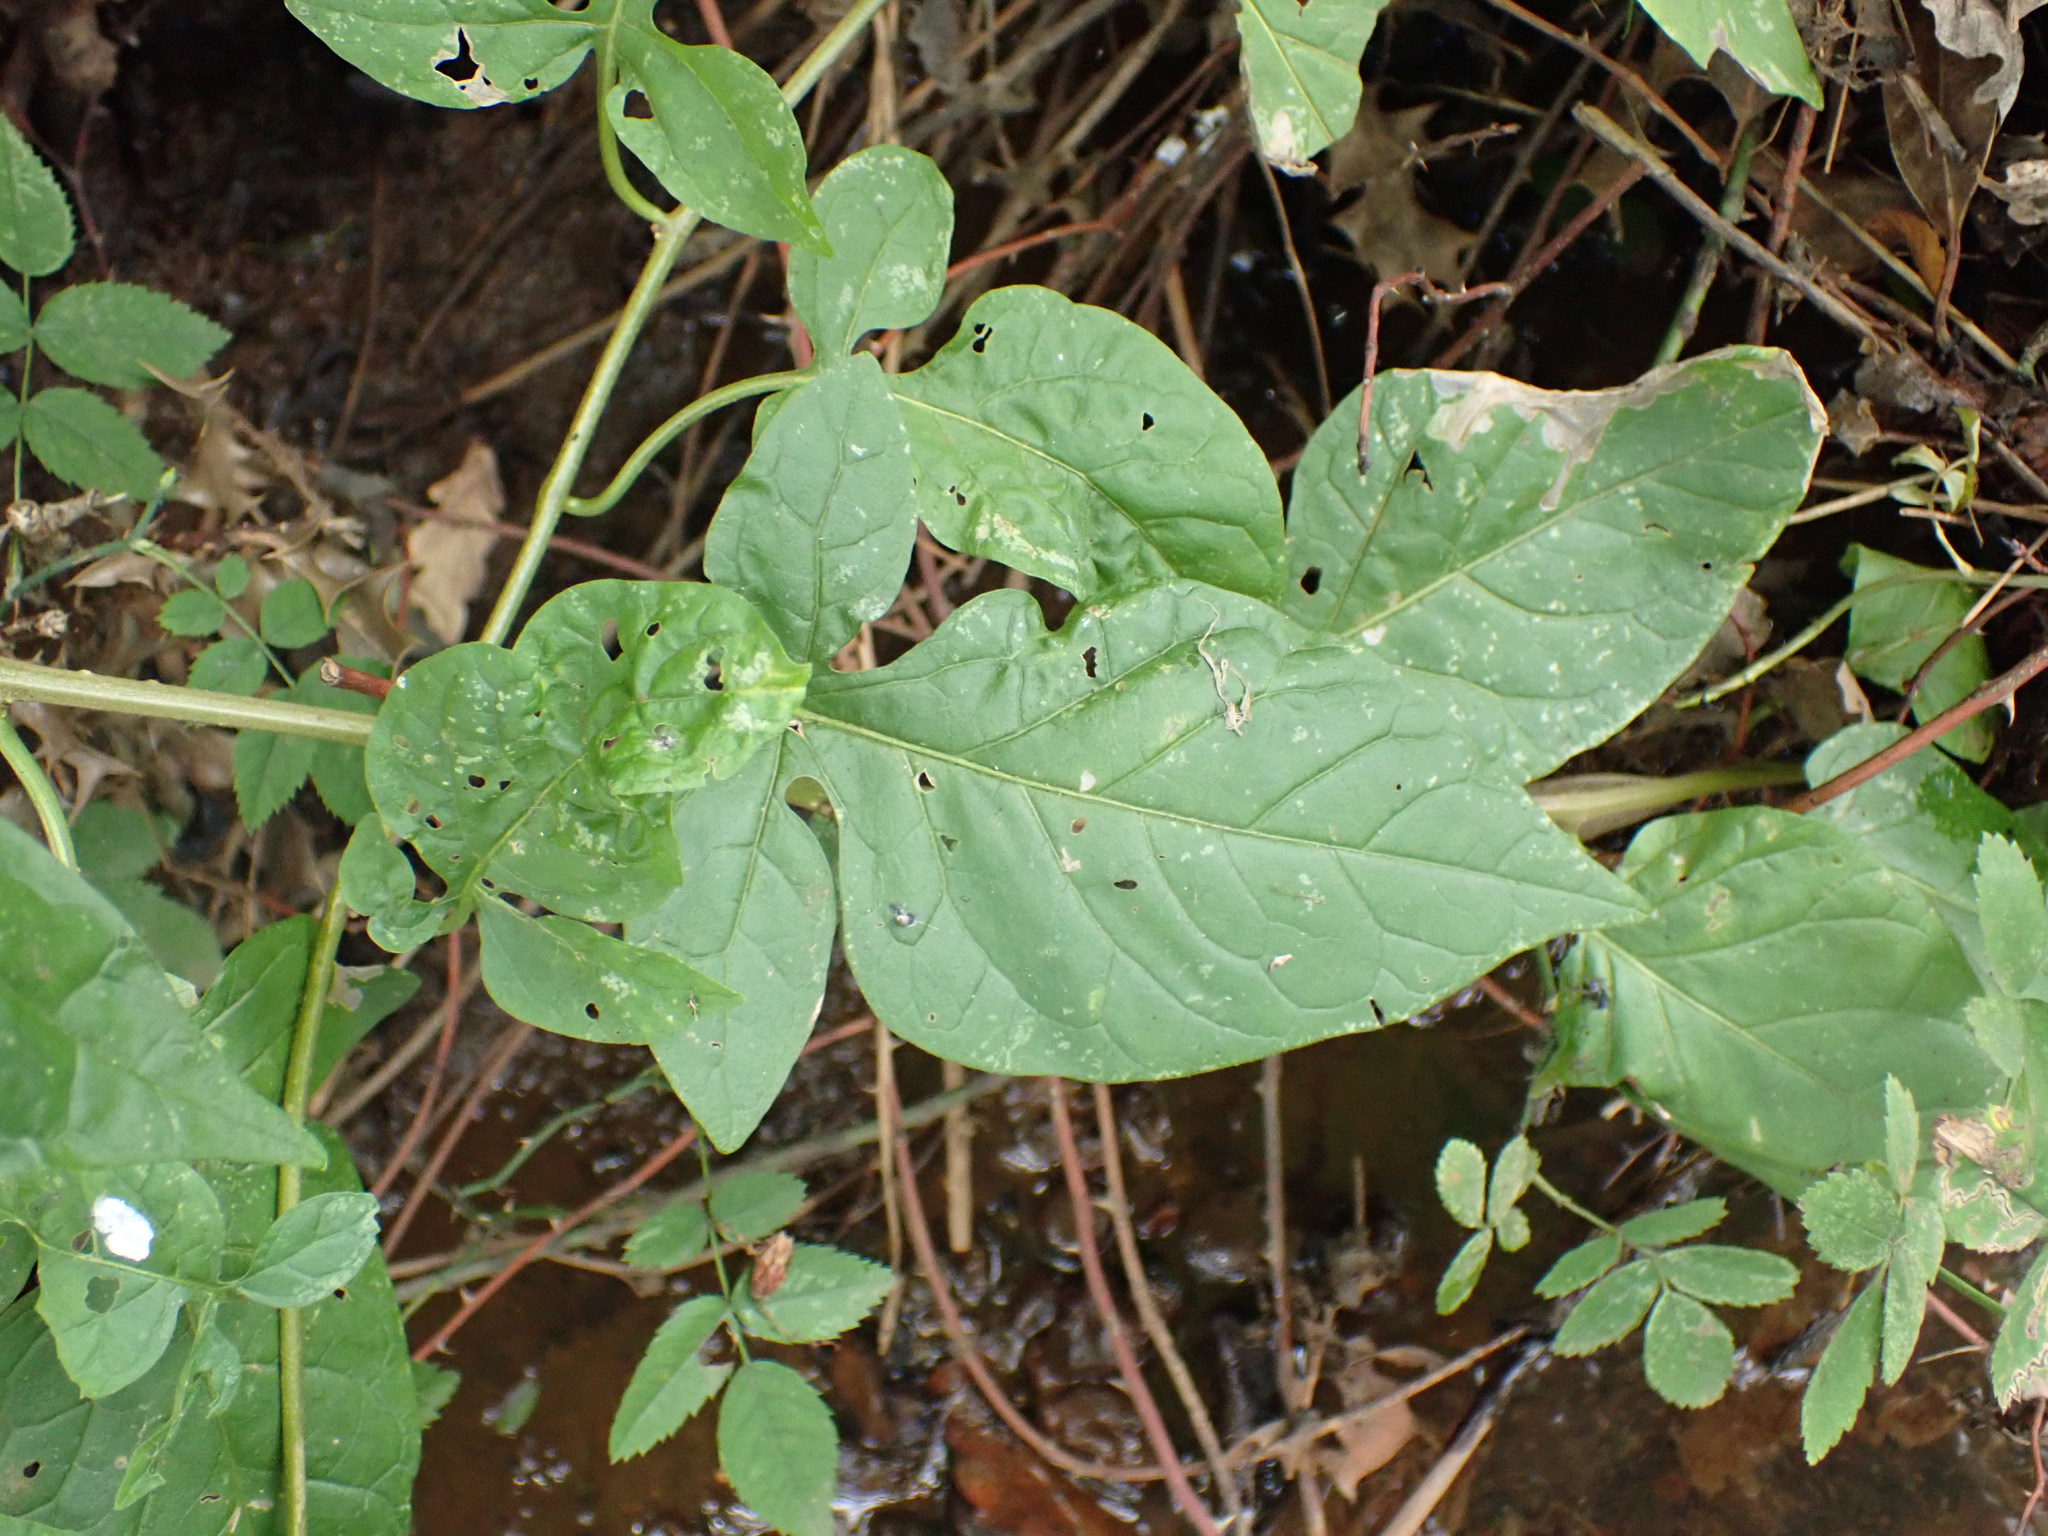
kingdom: Plantae
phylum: Tracheophyta
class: Magnoliopsida
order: Solanales
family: Solanaceae
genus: Solanum
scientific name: Solanum dulcamara
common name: Climbing nightshade
